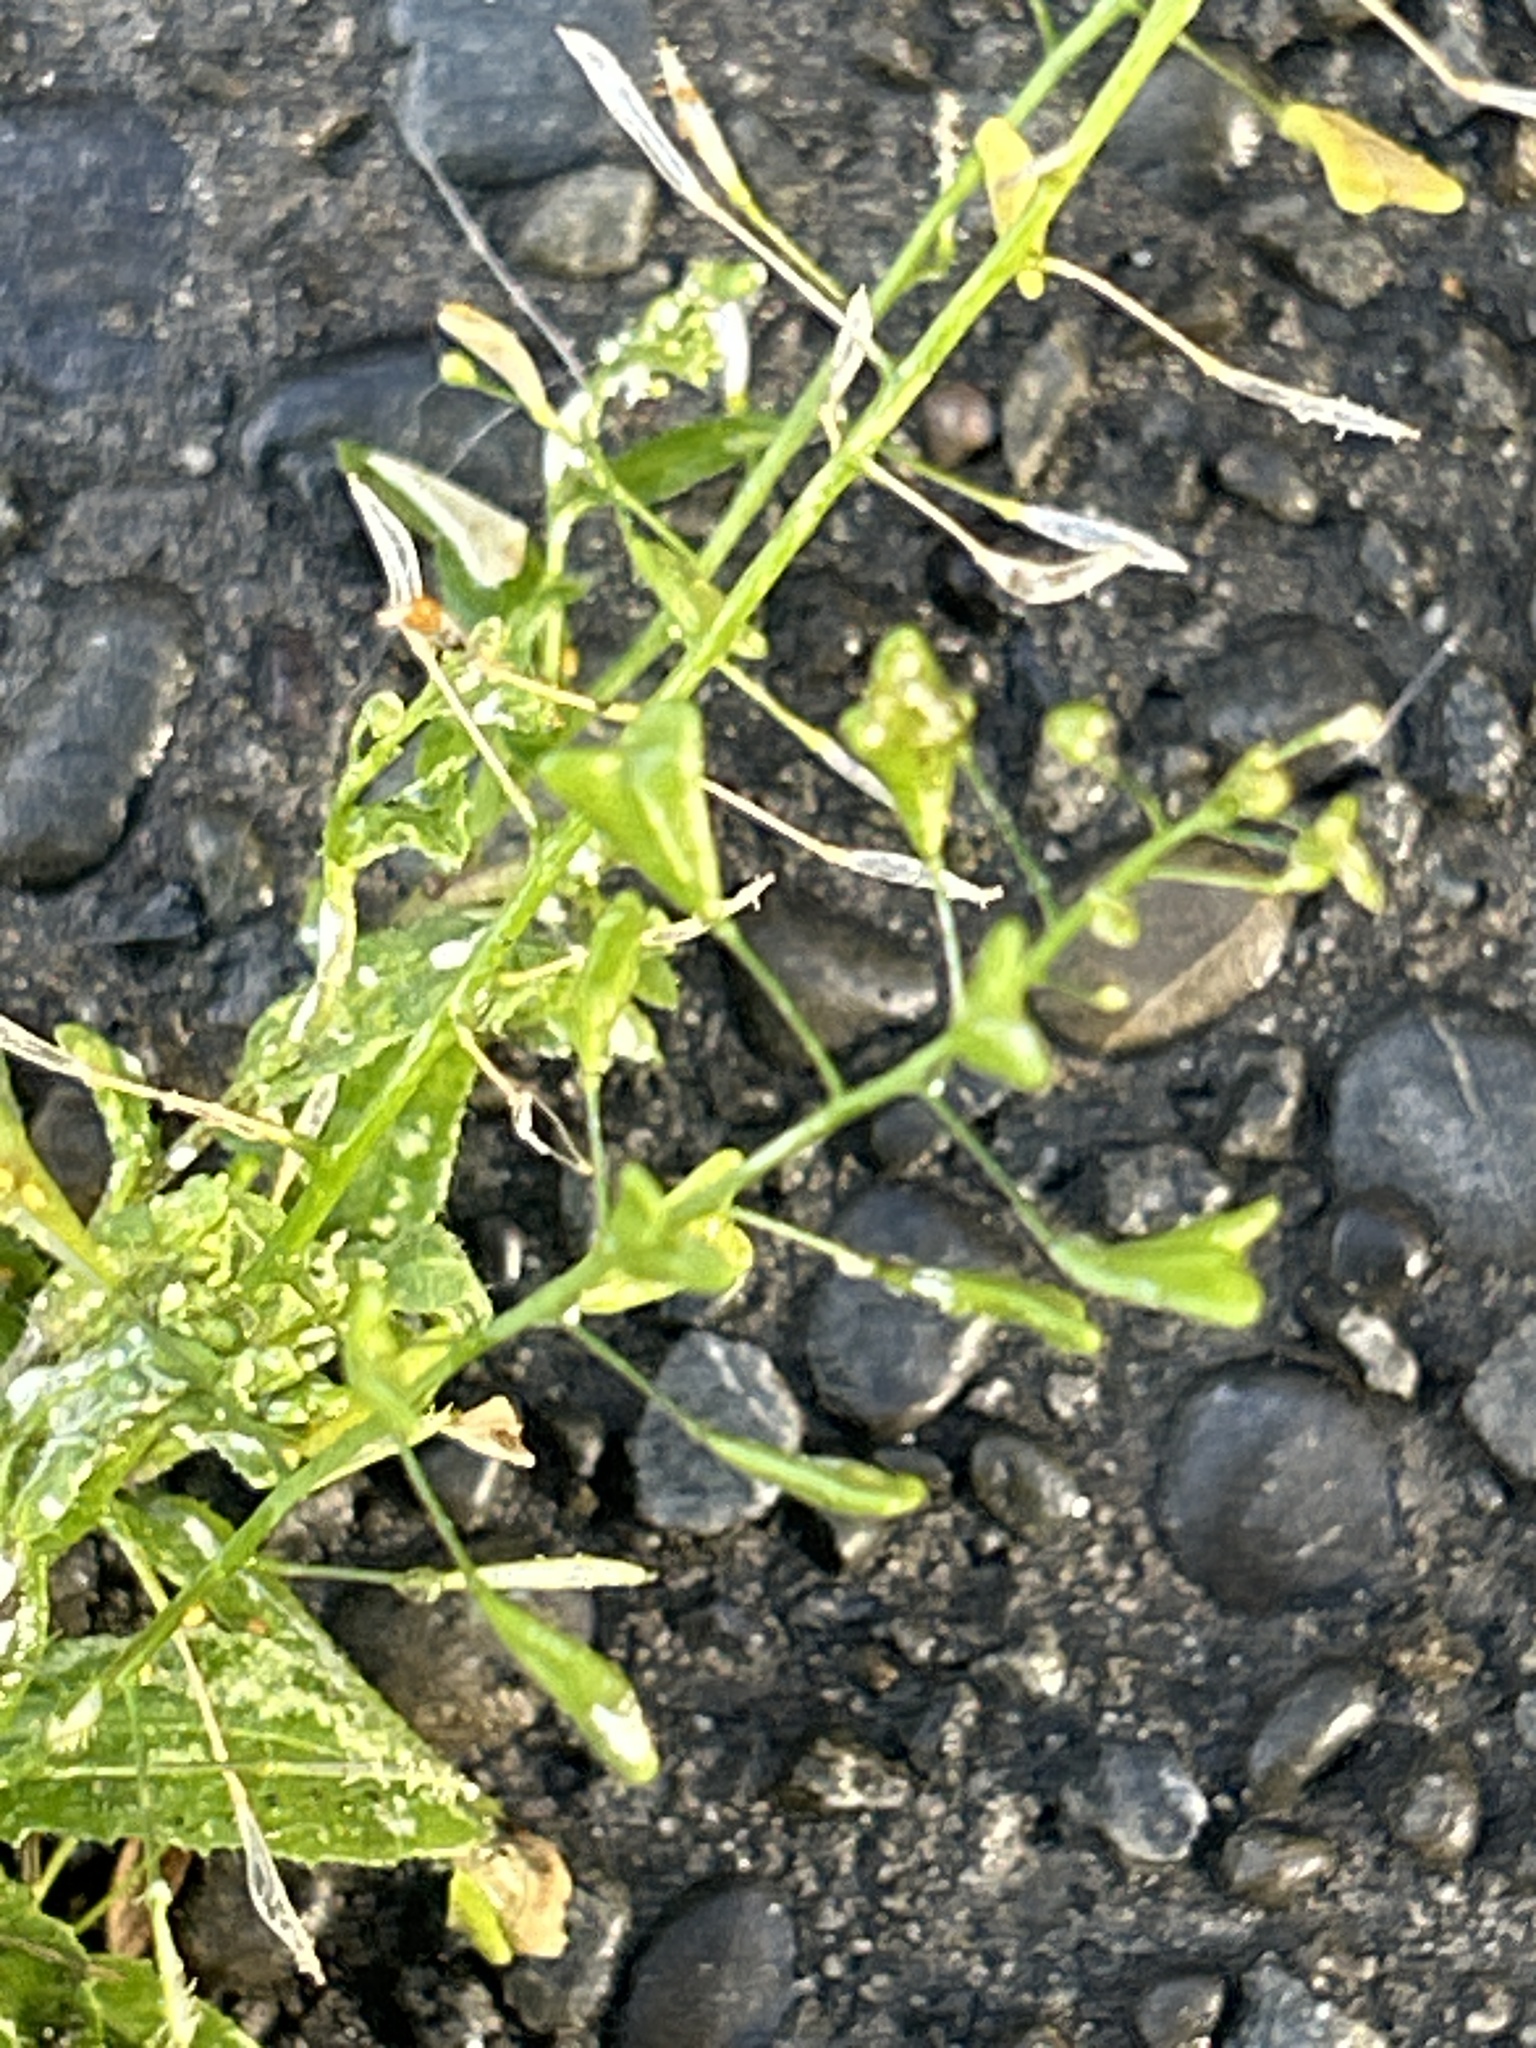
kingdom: Plantae
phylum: Tracheophyta
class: Magnoliopsida
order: Brassicales
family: Brassicaceae
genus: Capsella
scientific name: Capsella bursa-pastoris
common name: Shepherd's purse
